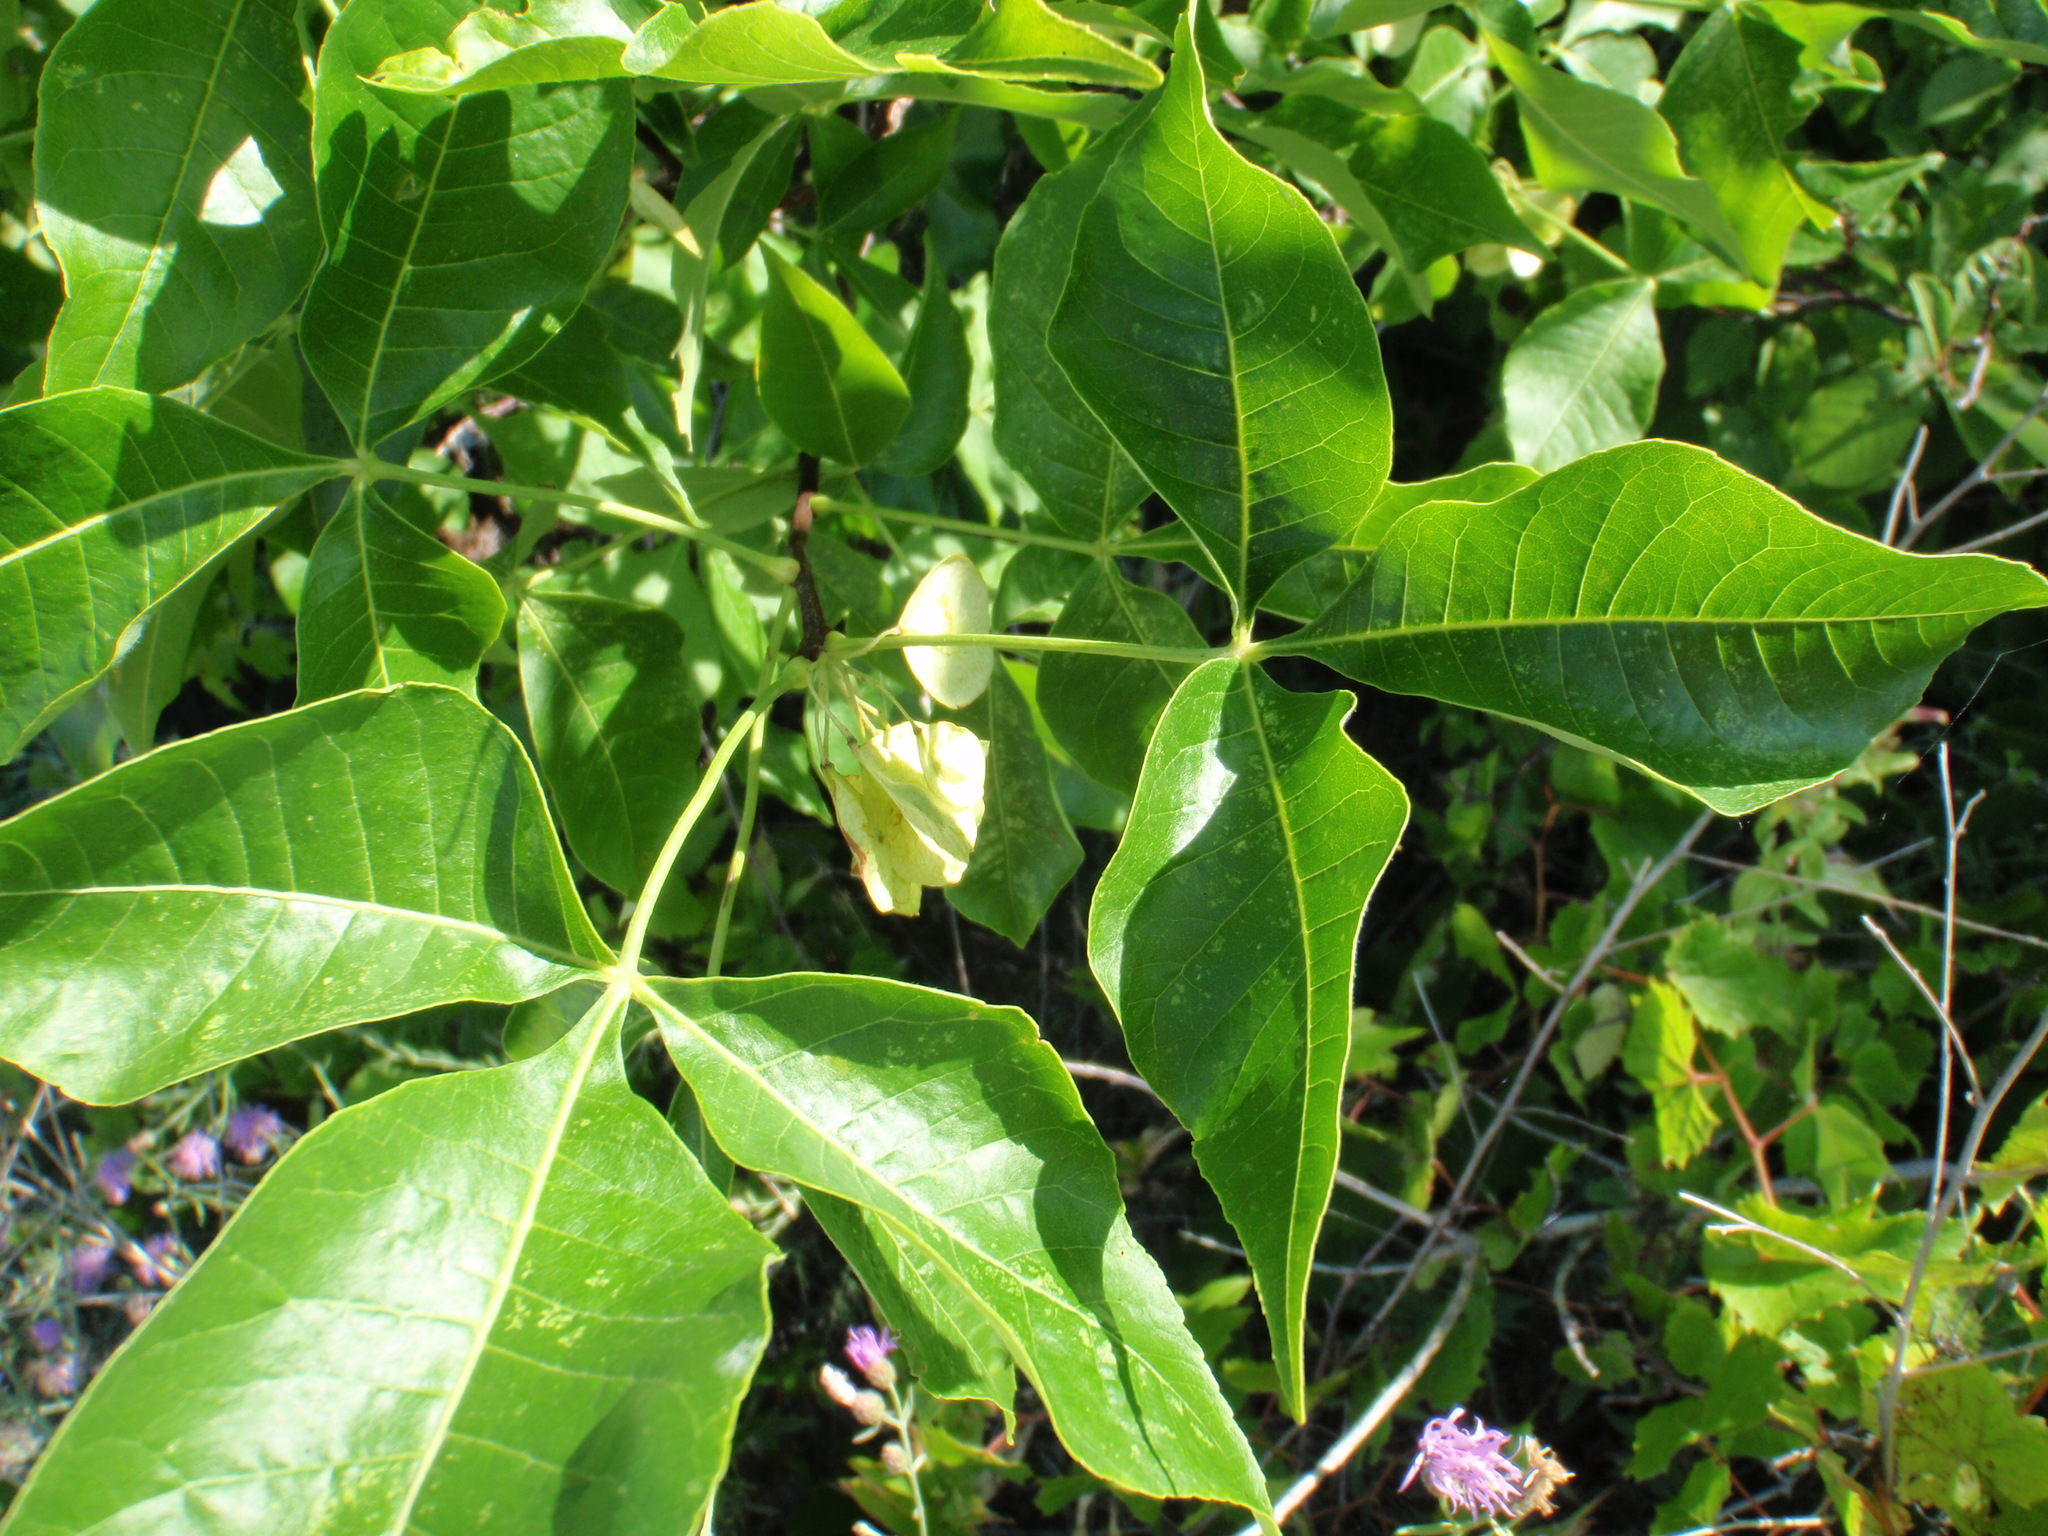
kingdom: Plantae
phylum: Tracheophyta
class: Magnoliopsida
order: Sapindales
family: Rutaceae
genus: Ptelea
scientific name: Ptelea trifoliata
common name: Common hop-tree
